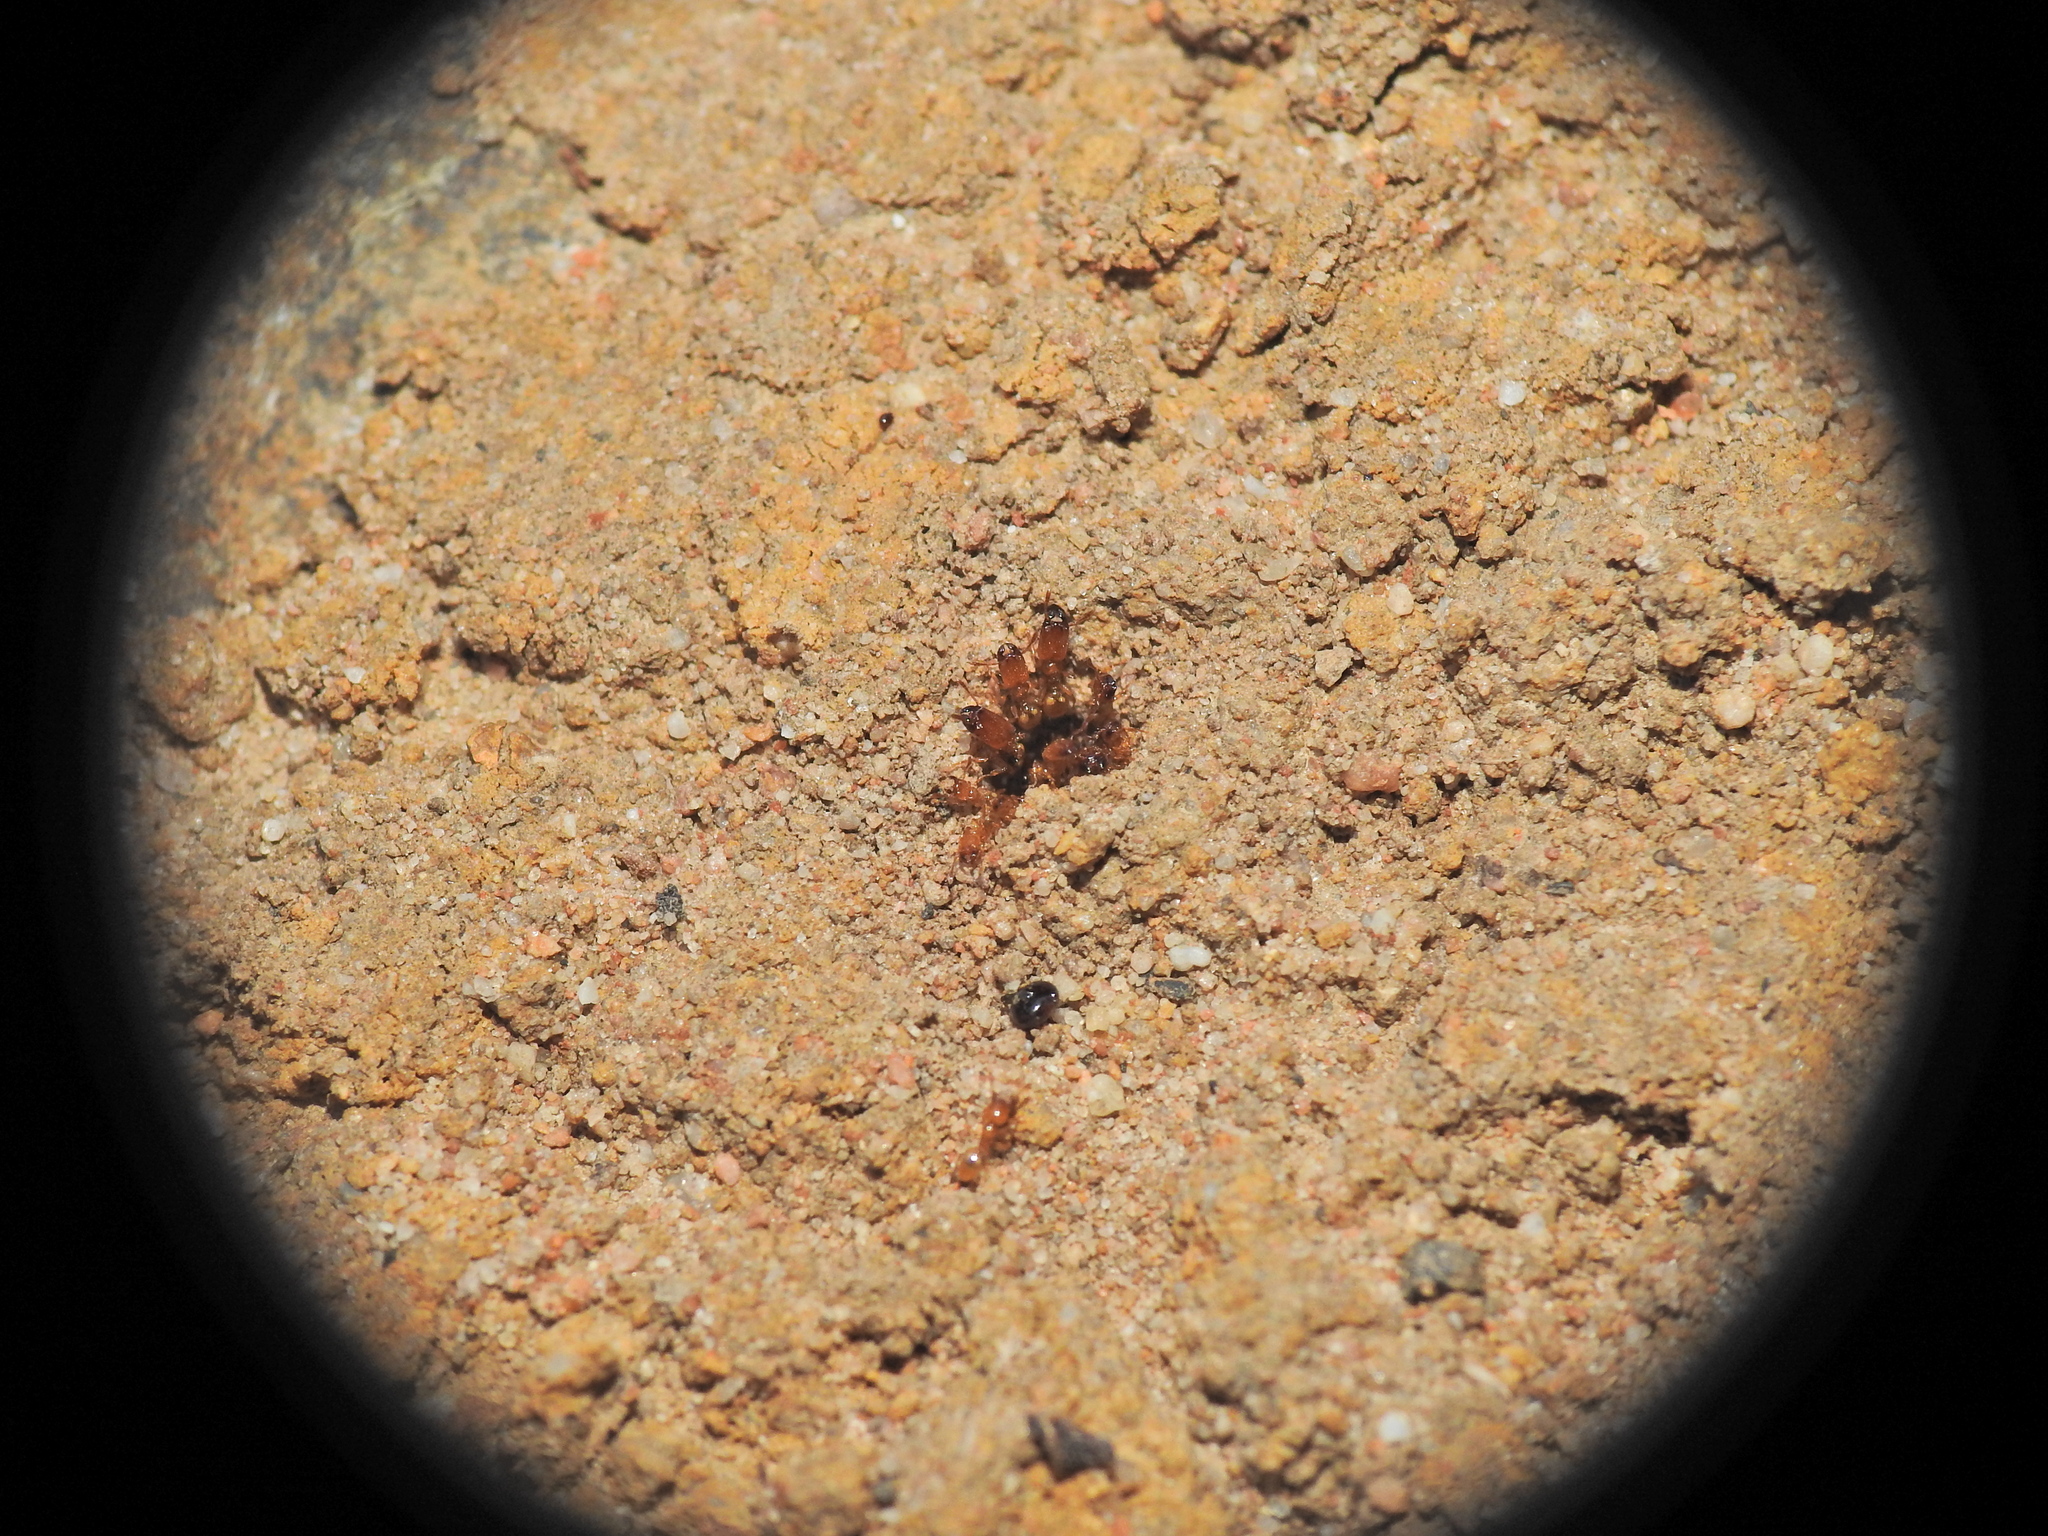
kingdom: Animalia
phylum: Arthropoda
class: Insecta
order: Hymenoptera
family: Formicidae
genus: Pheidole
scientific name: Pheidole
